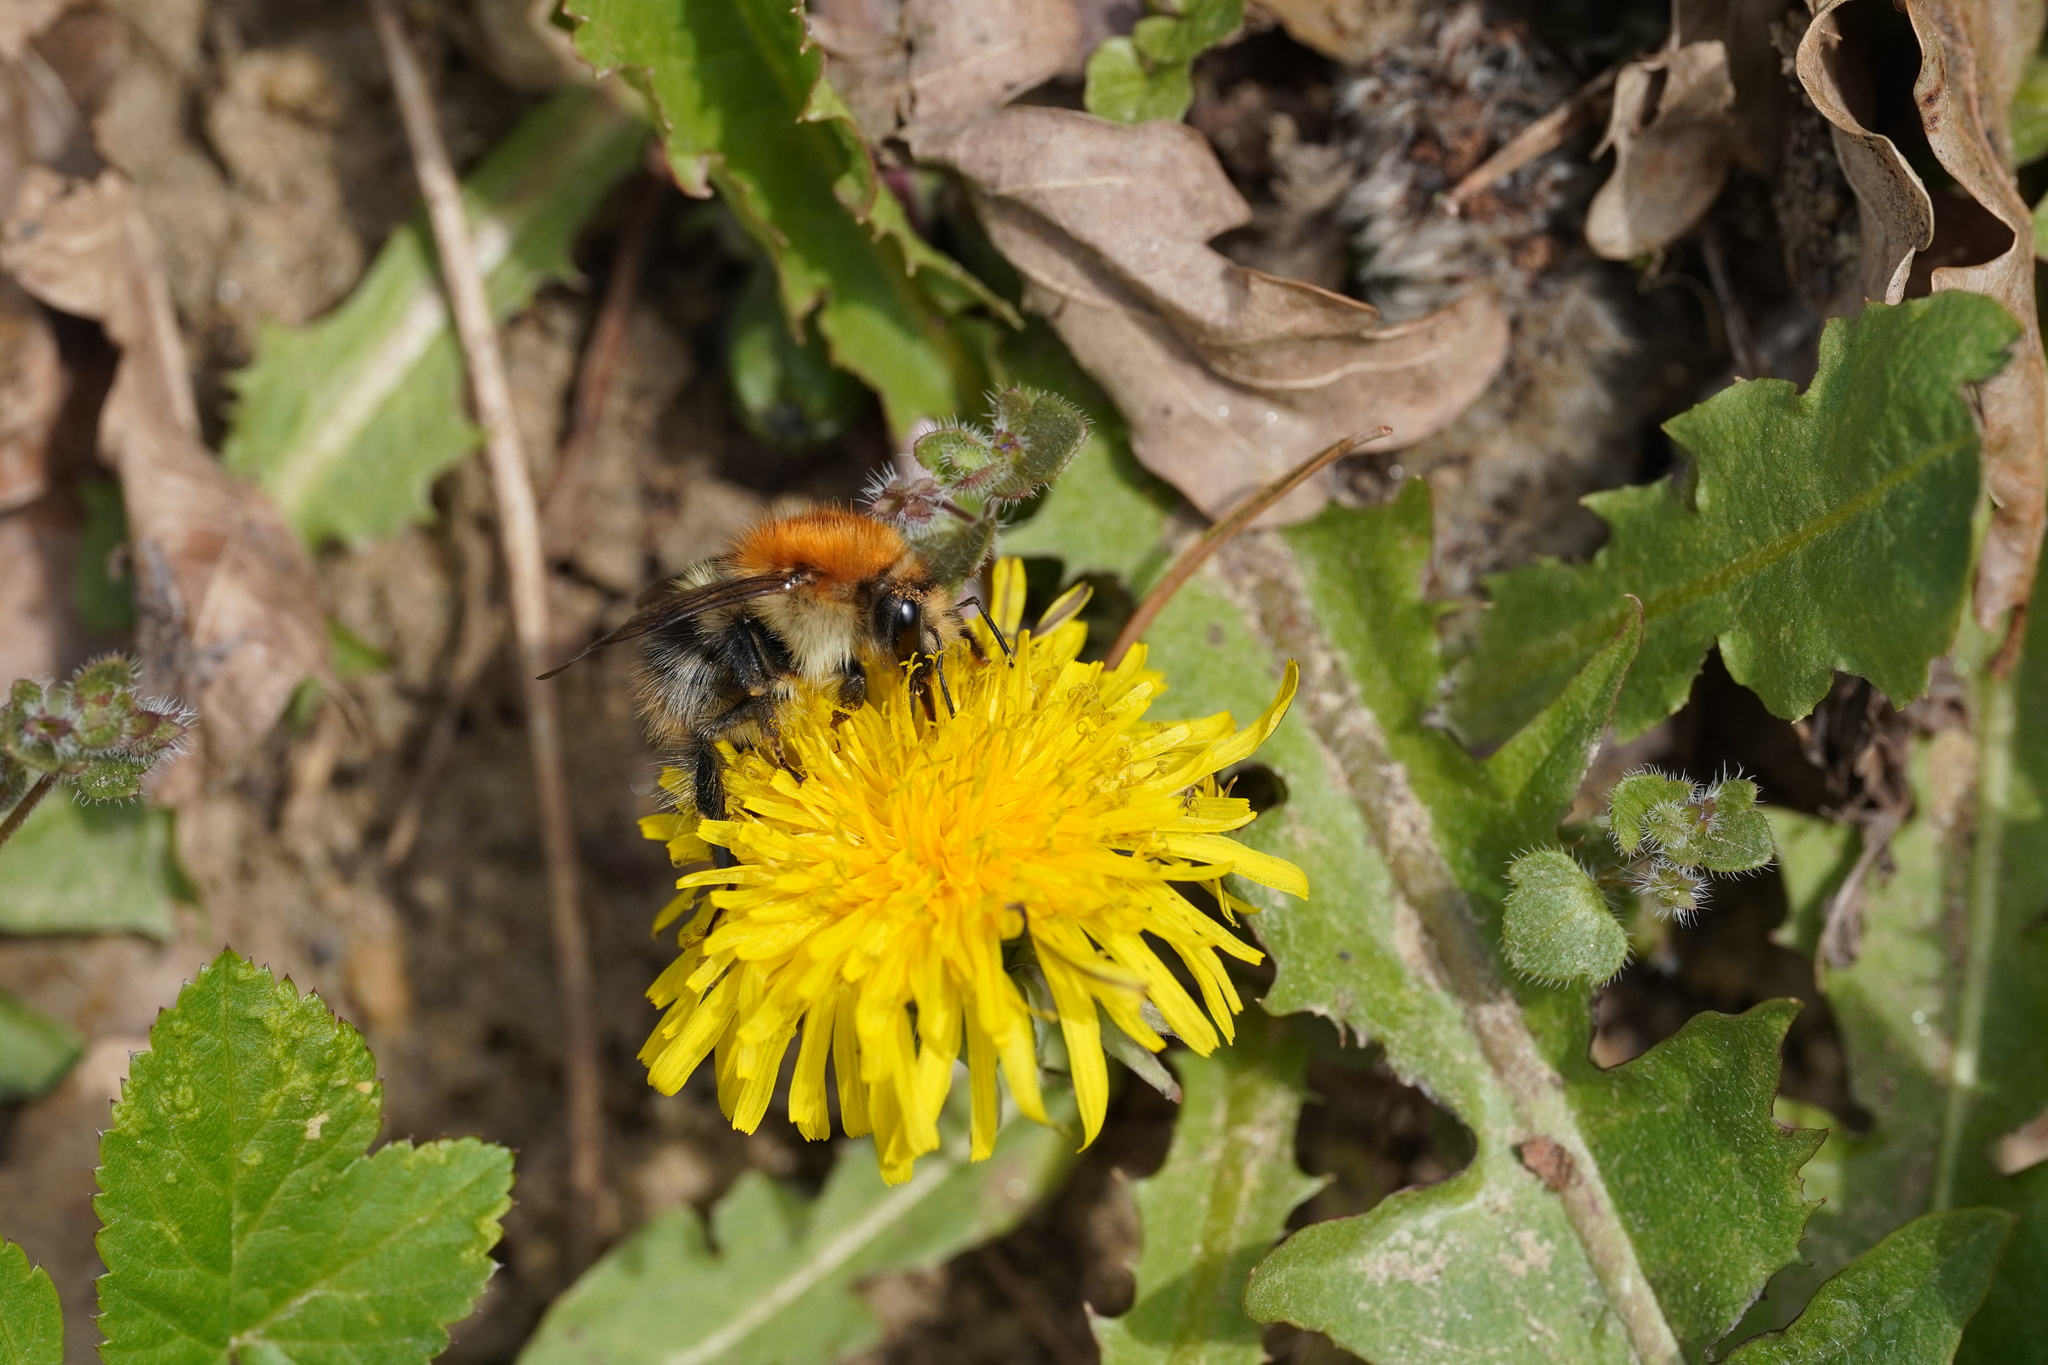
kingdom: Animalia
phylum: Arthropoda
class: Insecta
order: Hymenoptera
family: Apidae
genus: Bombus
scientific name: Bombus pascuorum
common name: Common carder bee
